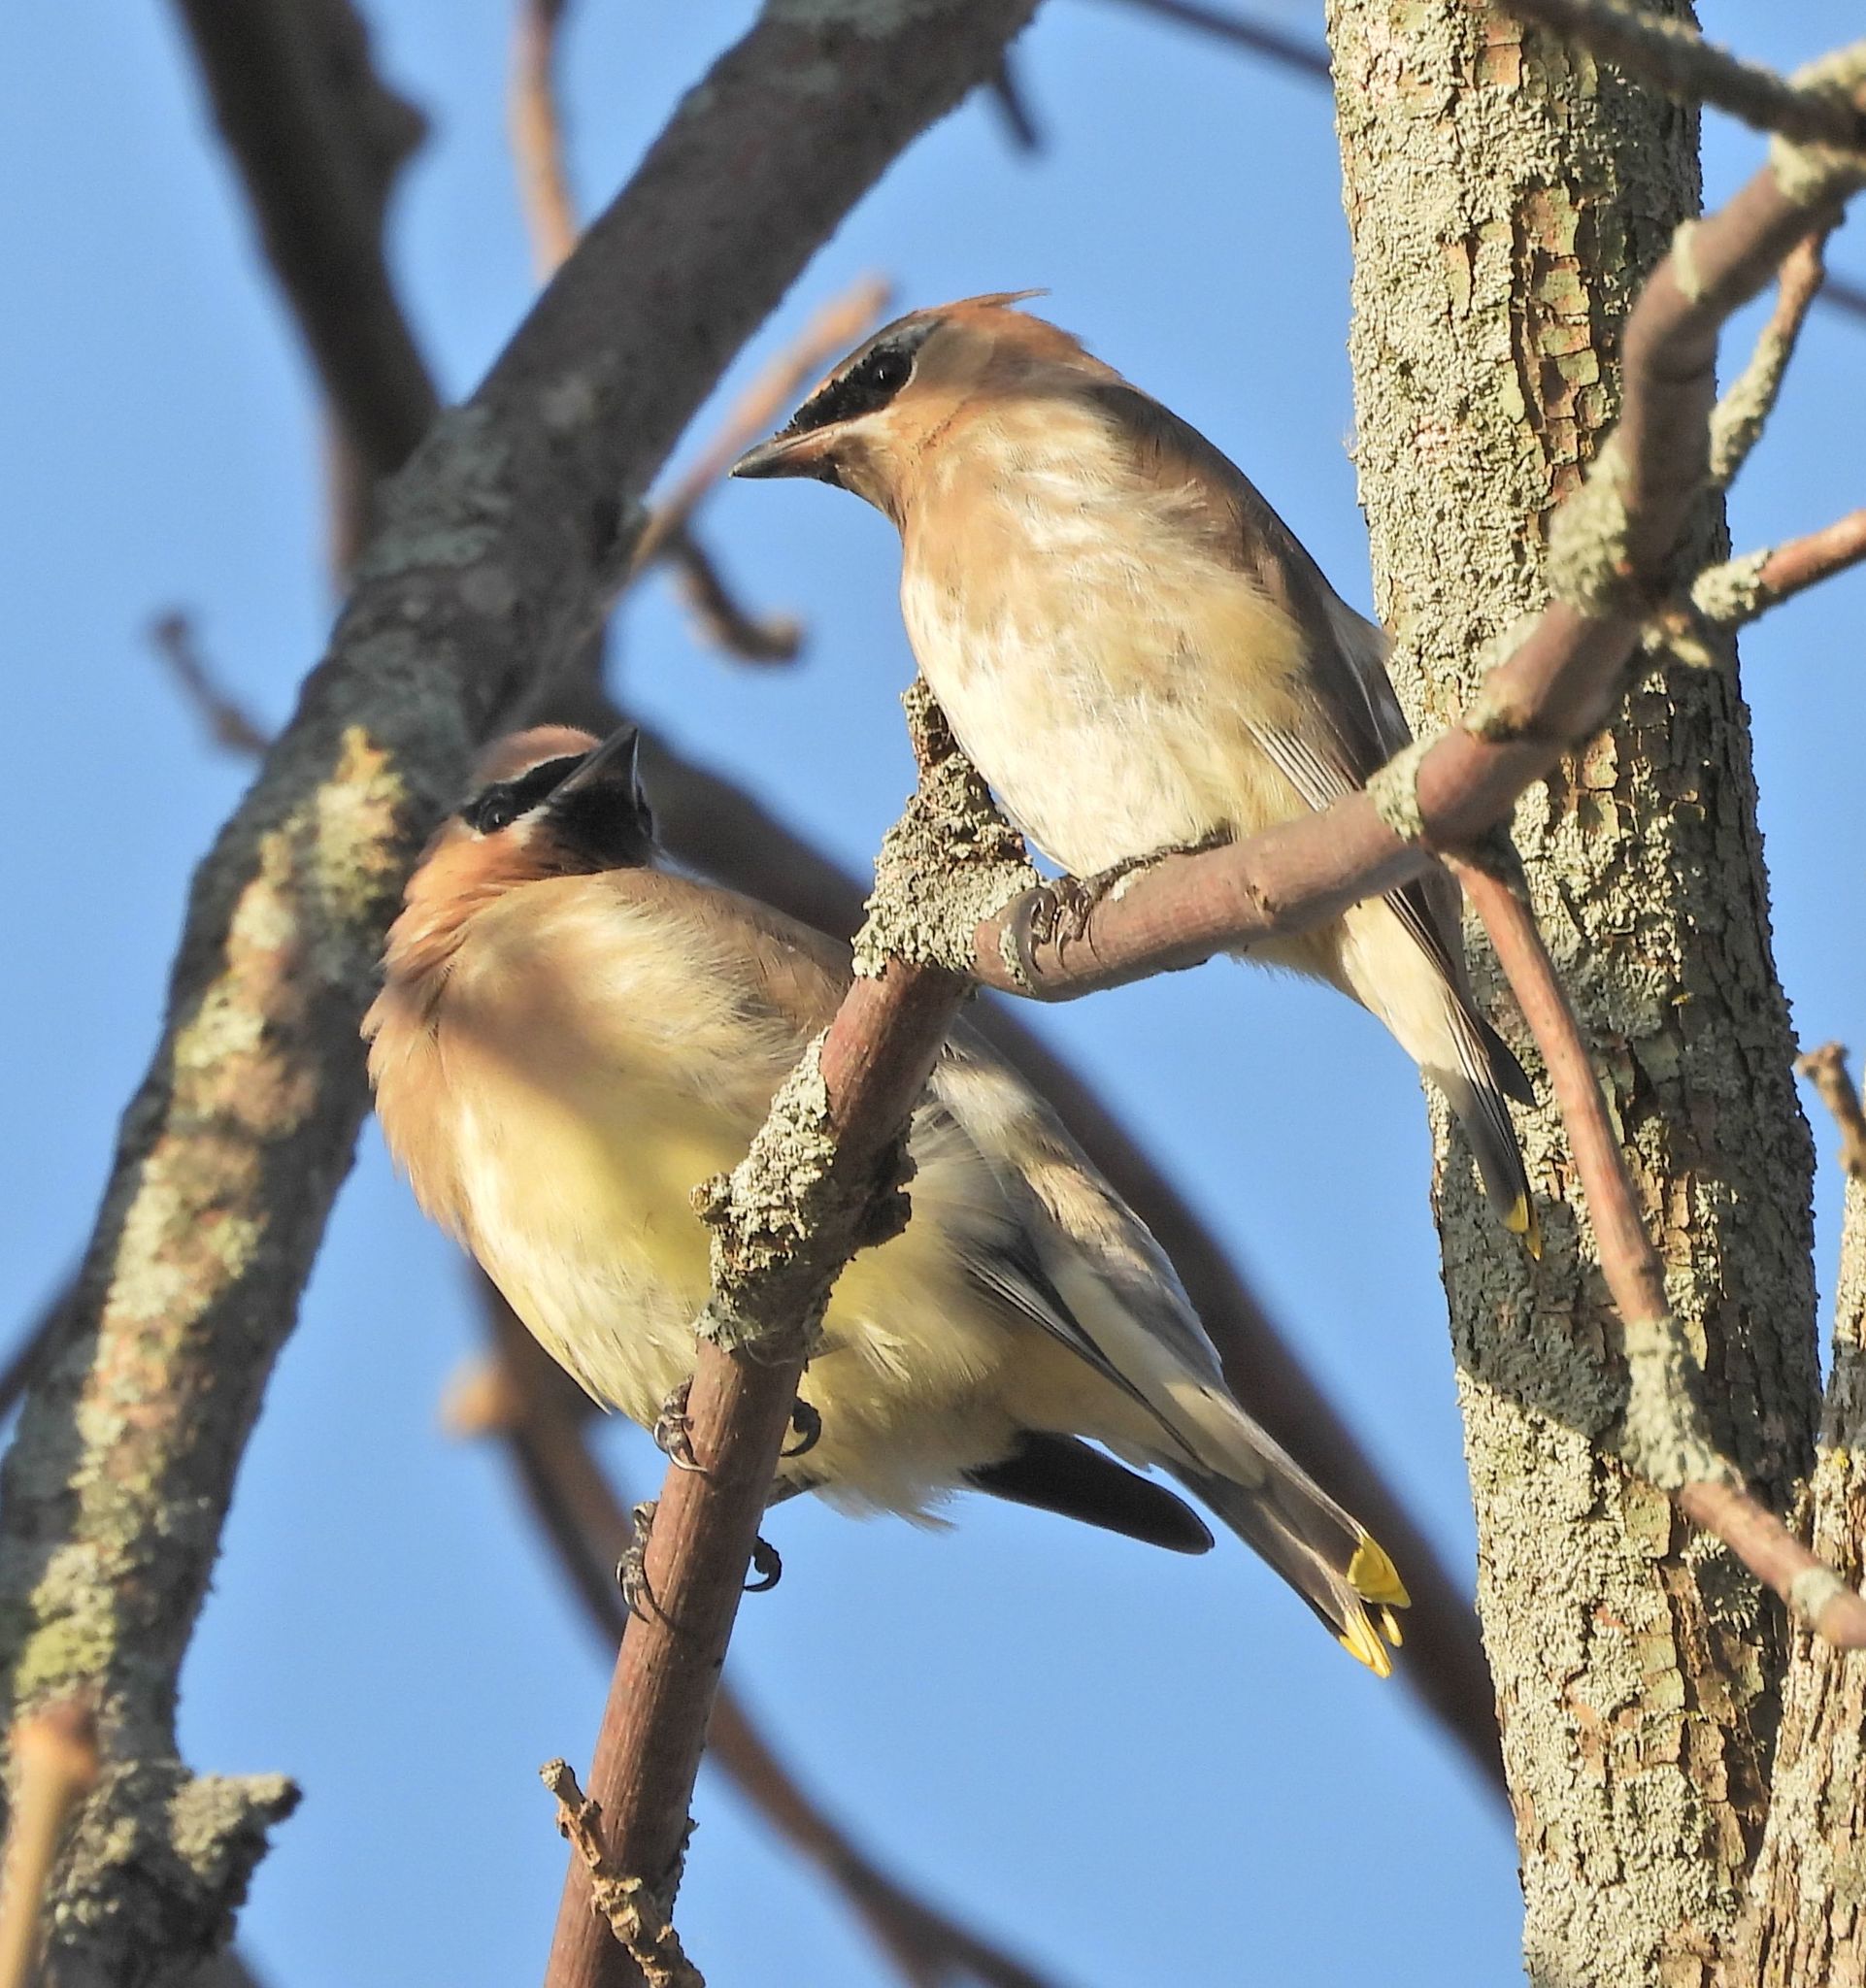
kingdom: Animalia
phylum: Chordata
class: Aves
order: Passeriformes
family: Bombycillidae
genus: Bombycilla
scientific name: Bombycilla cedrorum
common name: Cedar waxwing
